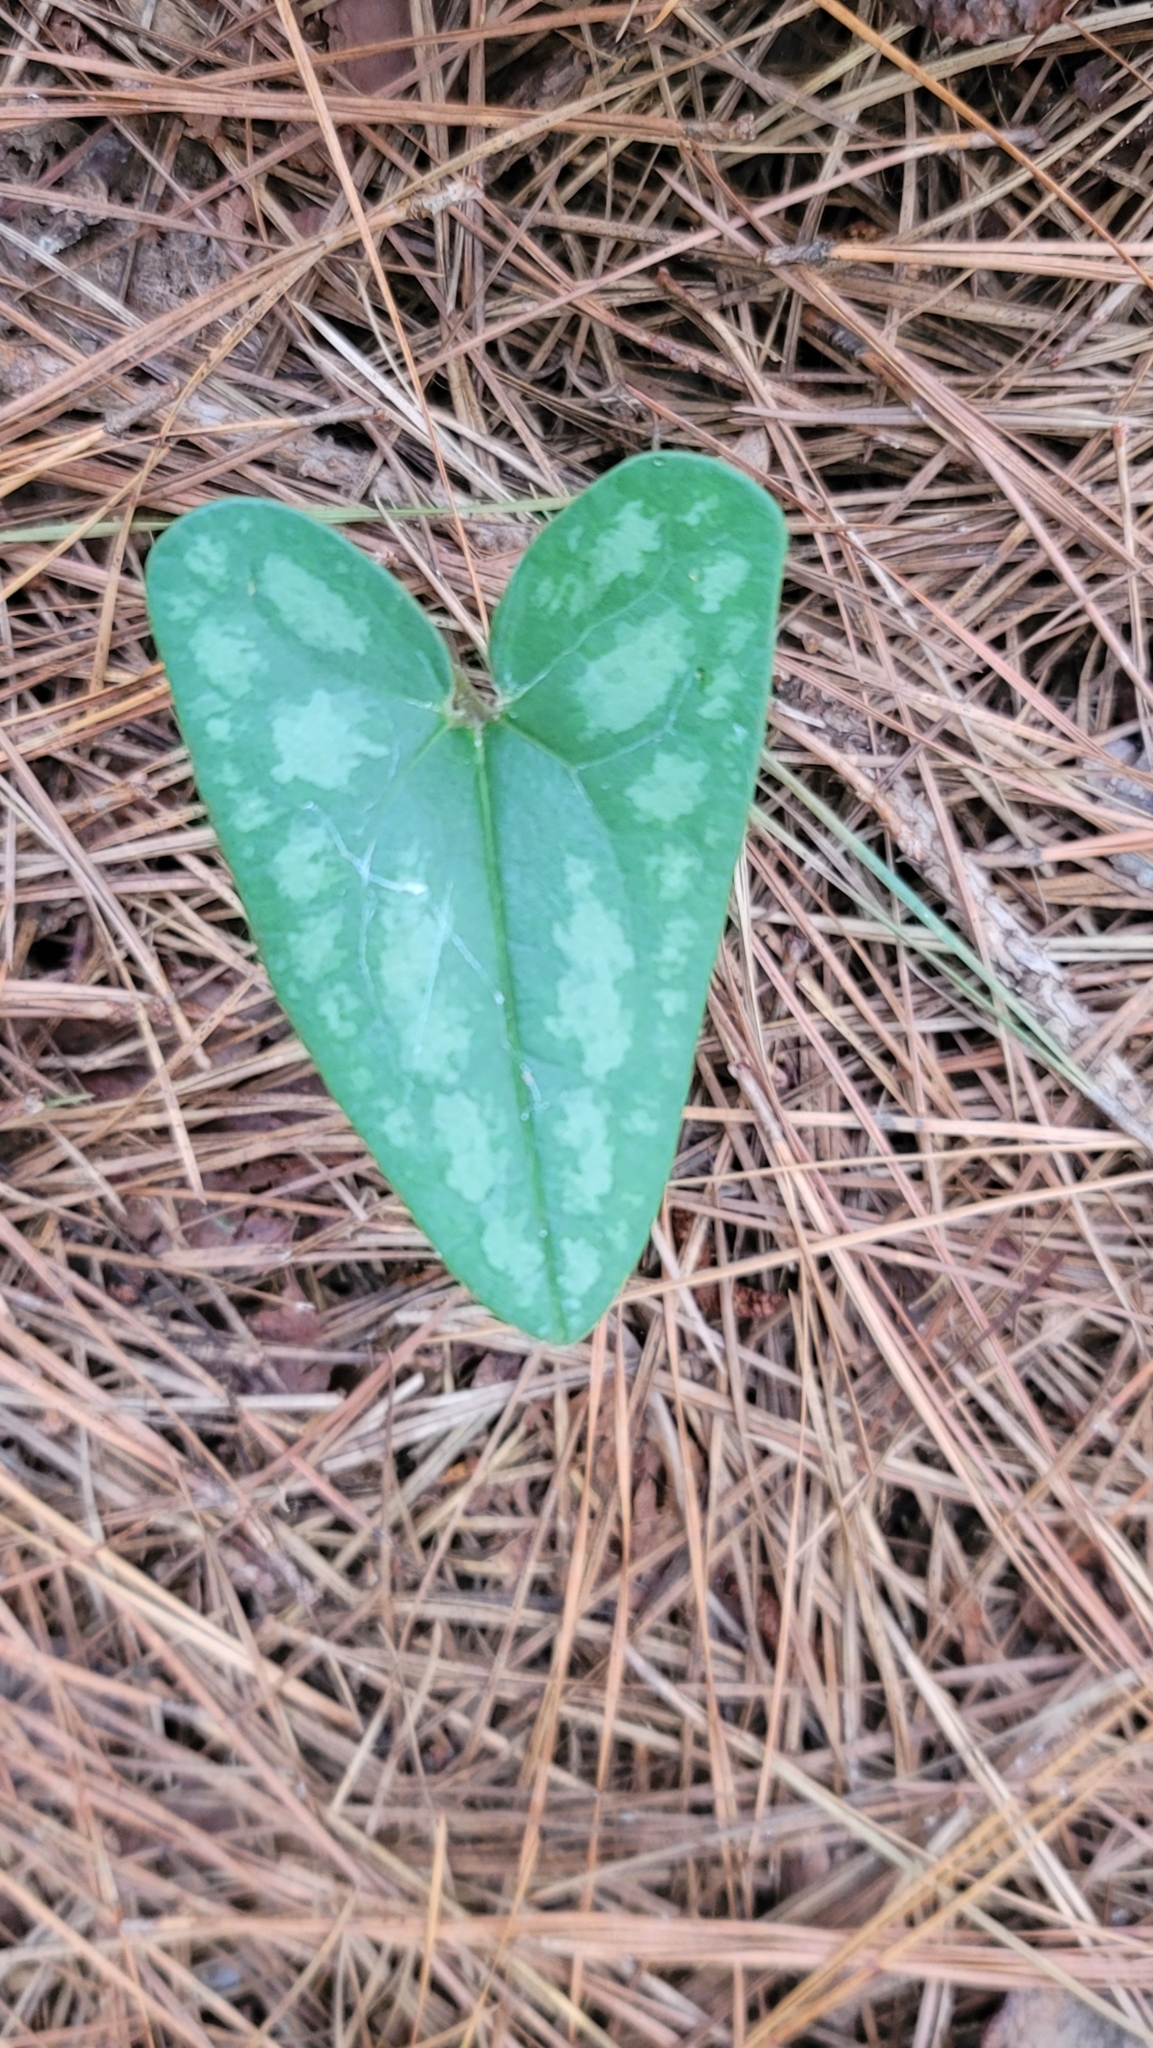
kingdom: Plantae
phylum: Tracheophyta
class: Magnoliopsida
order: Piperales
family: Aristolochiaceae
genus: Hexastylis
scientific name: Hexastylis arifolia
